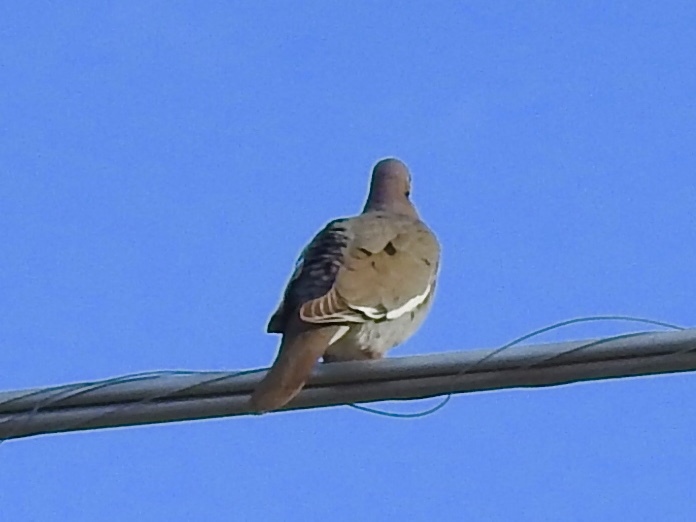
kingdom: Animalia
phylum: Chordata
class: Aves
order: Columbiformes
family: Columbidae
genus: Zenaida
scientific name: Zenaida asiatica
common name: White-winged dove
